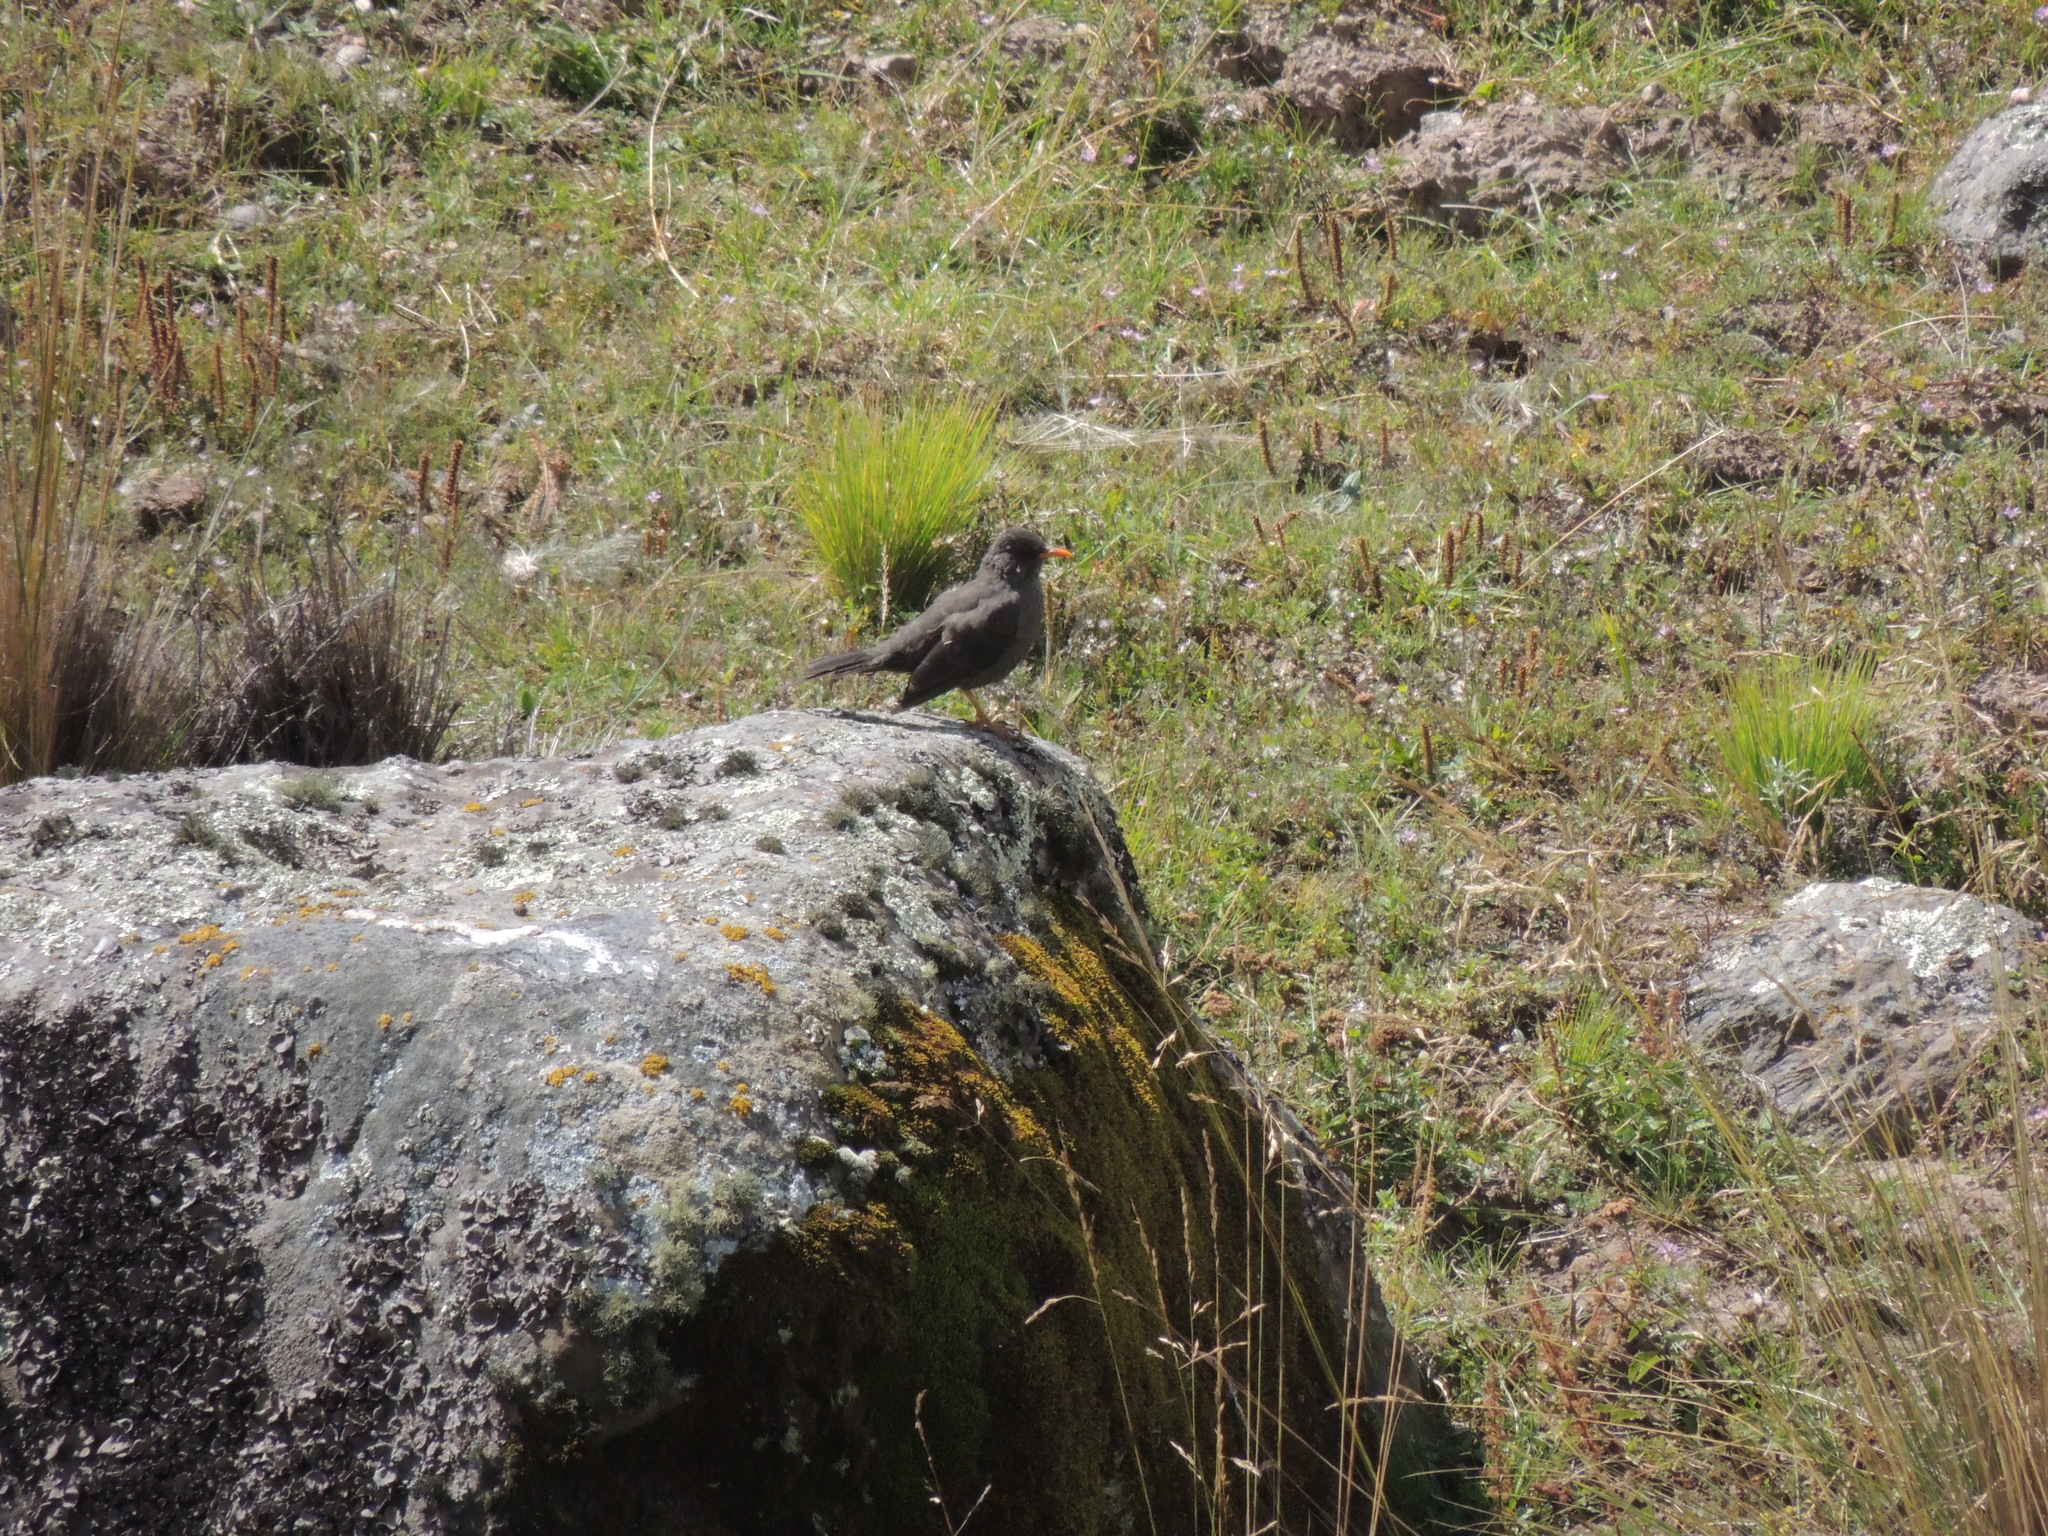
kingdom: Animalia
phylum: Chordata
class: Aves
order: Passeriformes
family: Turdidae
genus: Turdus
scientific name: Turdus chiguanco
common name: Chiguanco thrush
